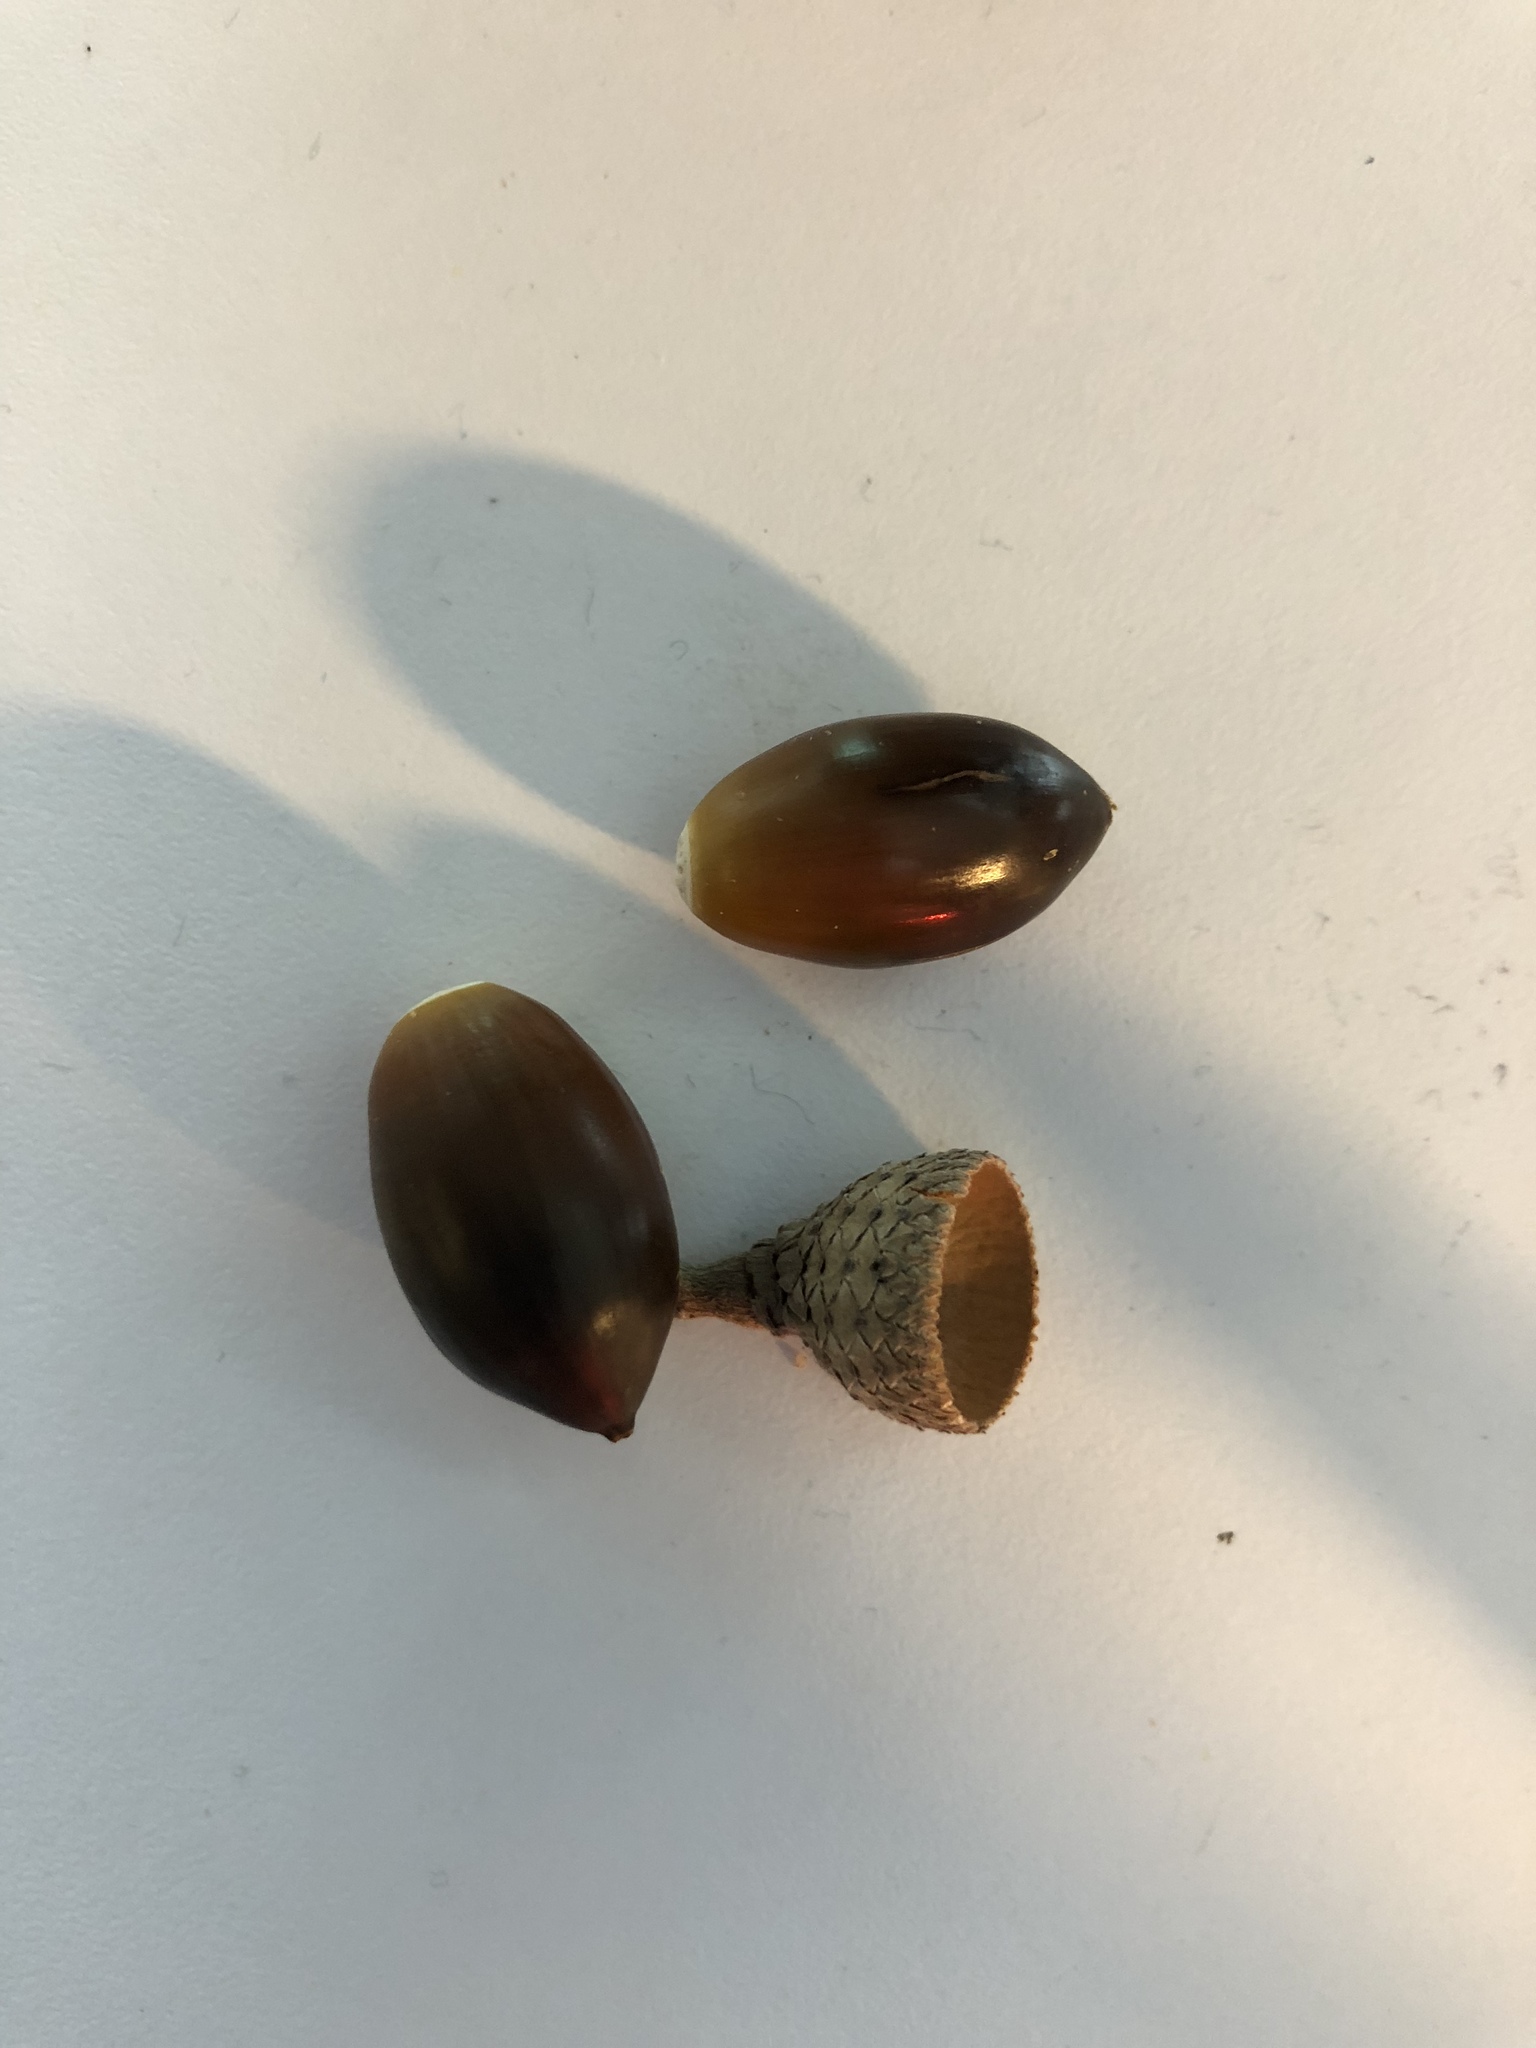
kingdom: Plantae
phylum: Tracheophyta
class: Magnoliopsida
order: Fagales
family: Fagaceae
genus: Quercus
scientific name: Quercus fusiformis
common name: Texas live oak
